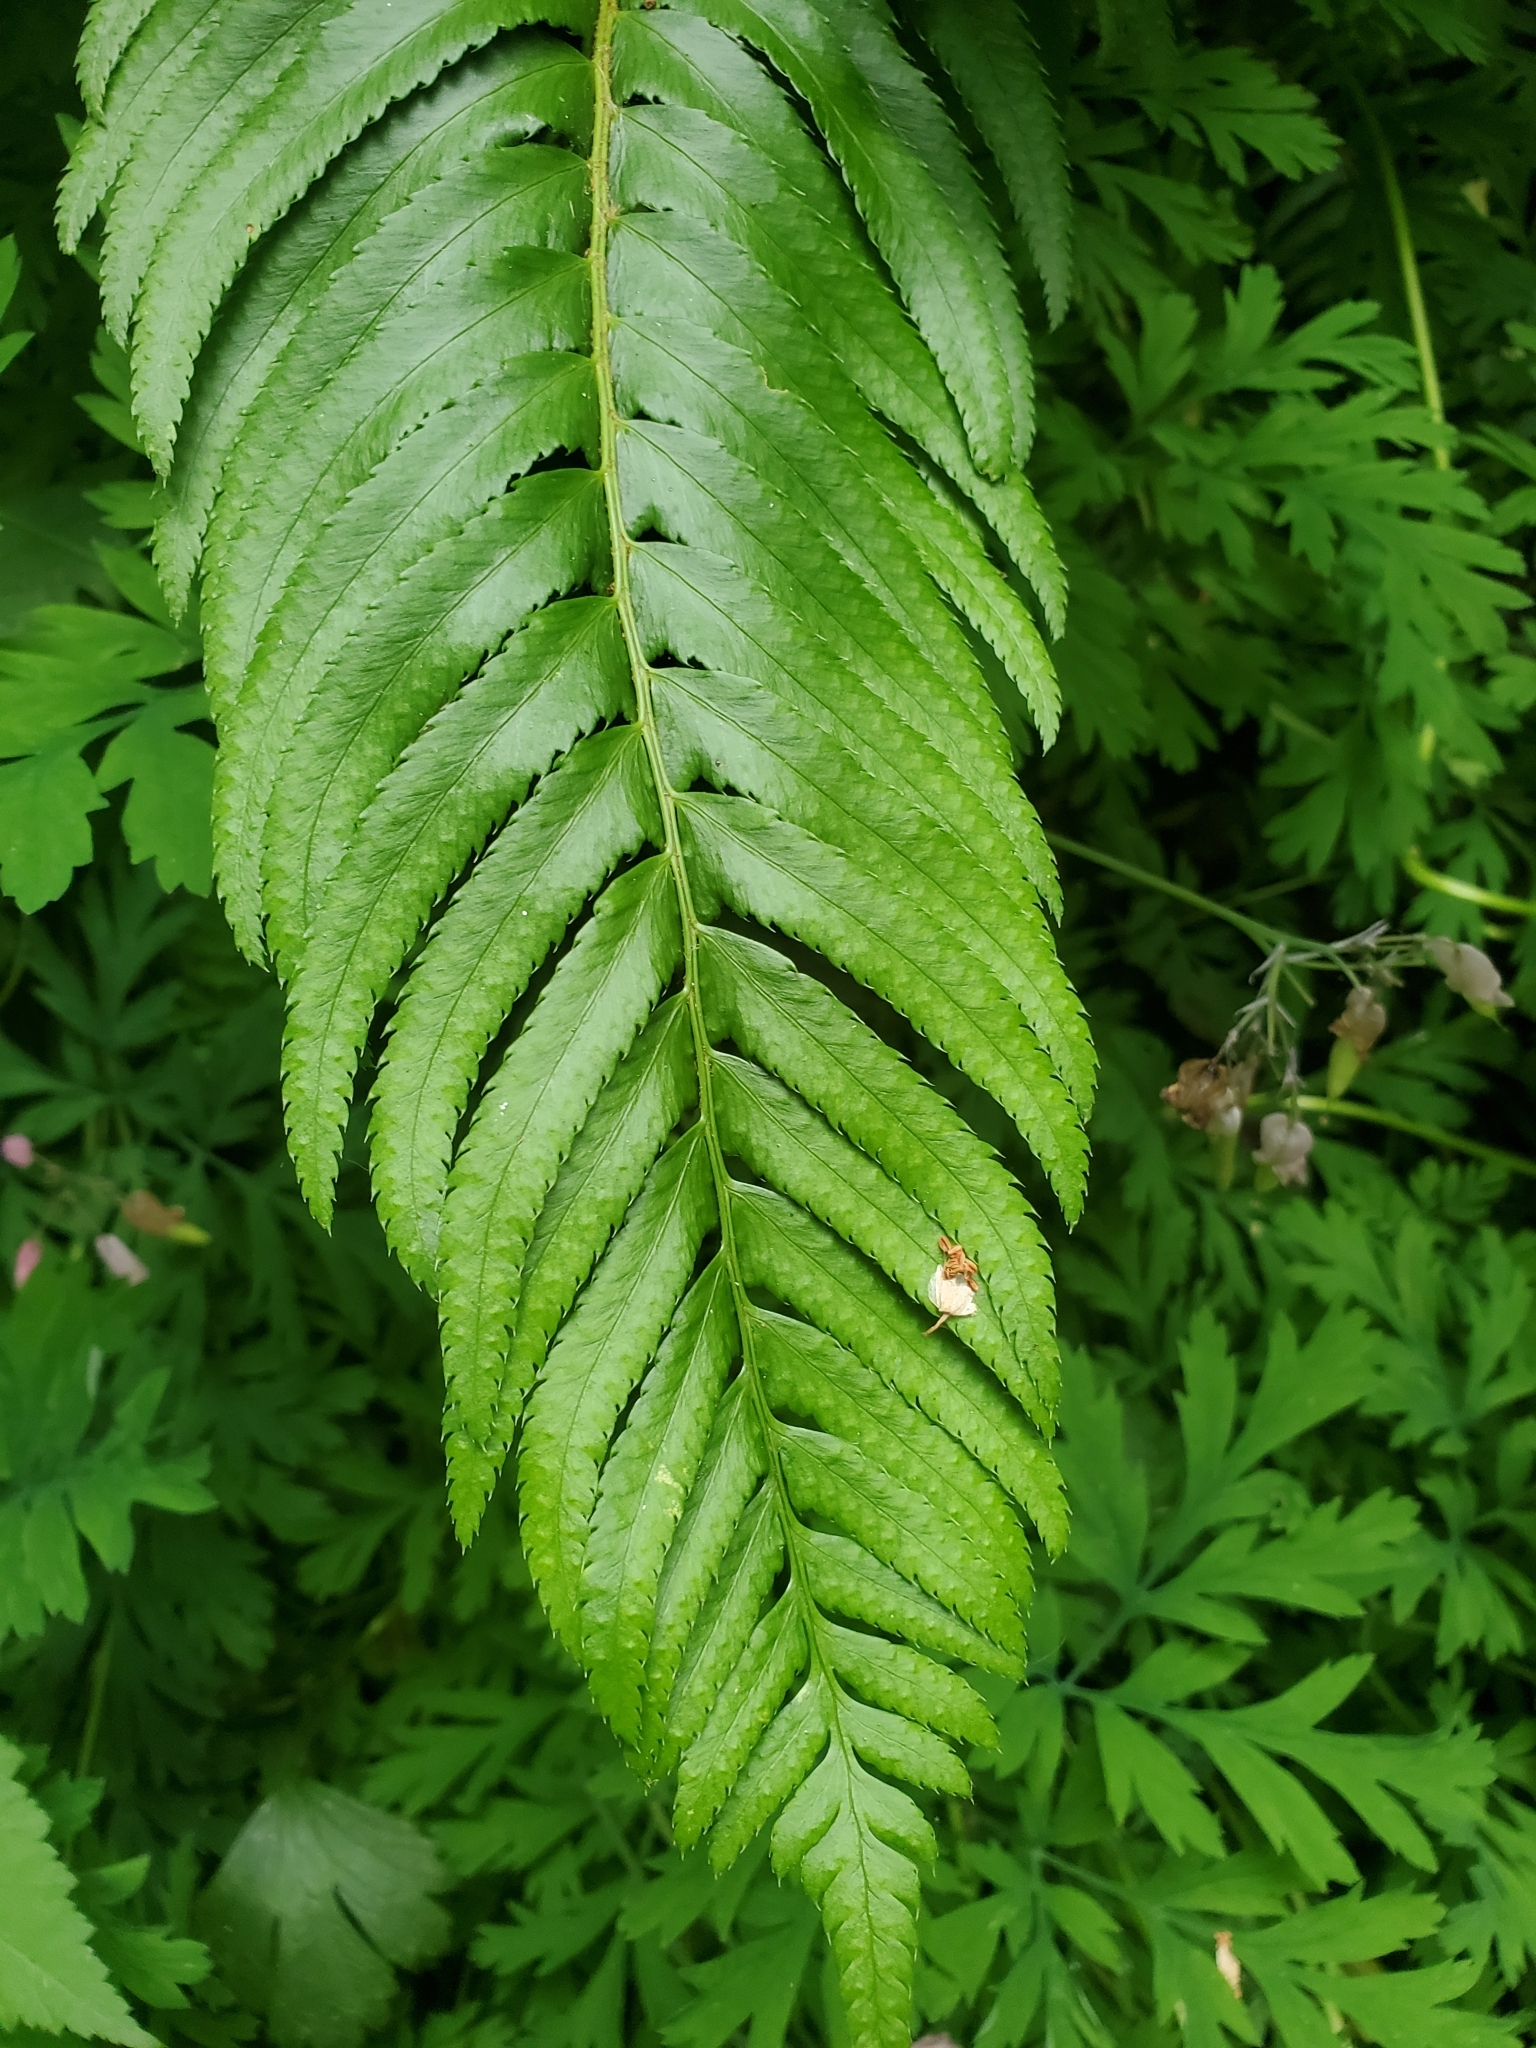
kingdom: Plantae
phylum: Tracheophyta
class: Polypodiopsida
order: Polypodiales
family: Dryopteridaceae
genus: Polystichum
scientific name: Polystichum munitum
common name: Western sword-fern
